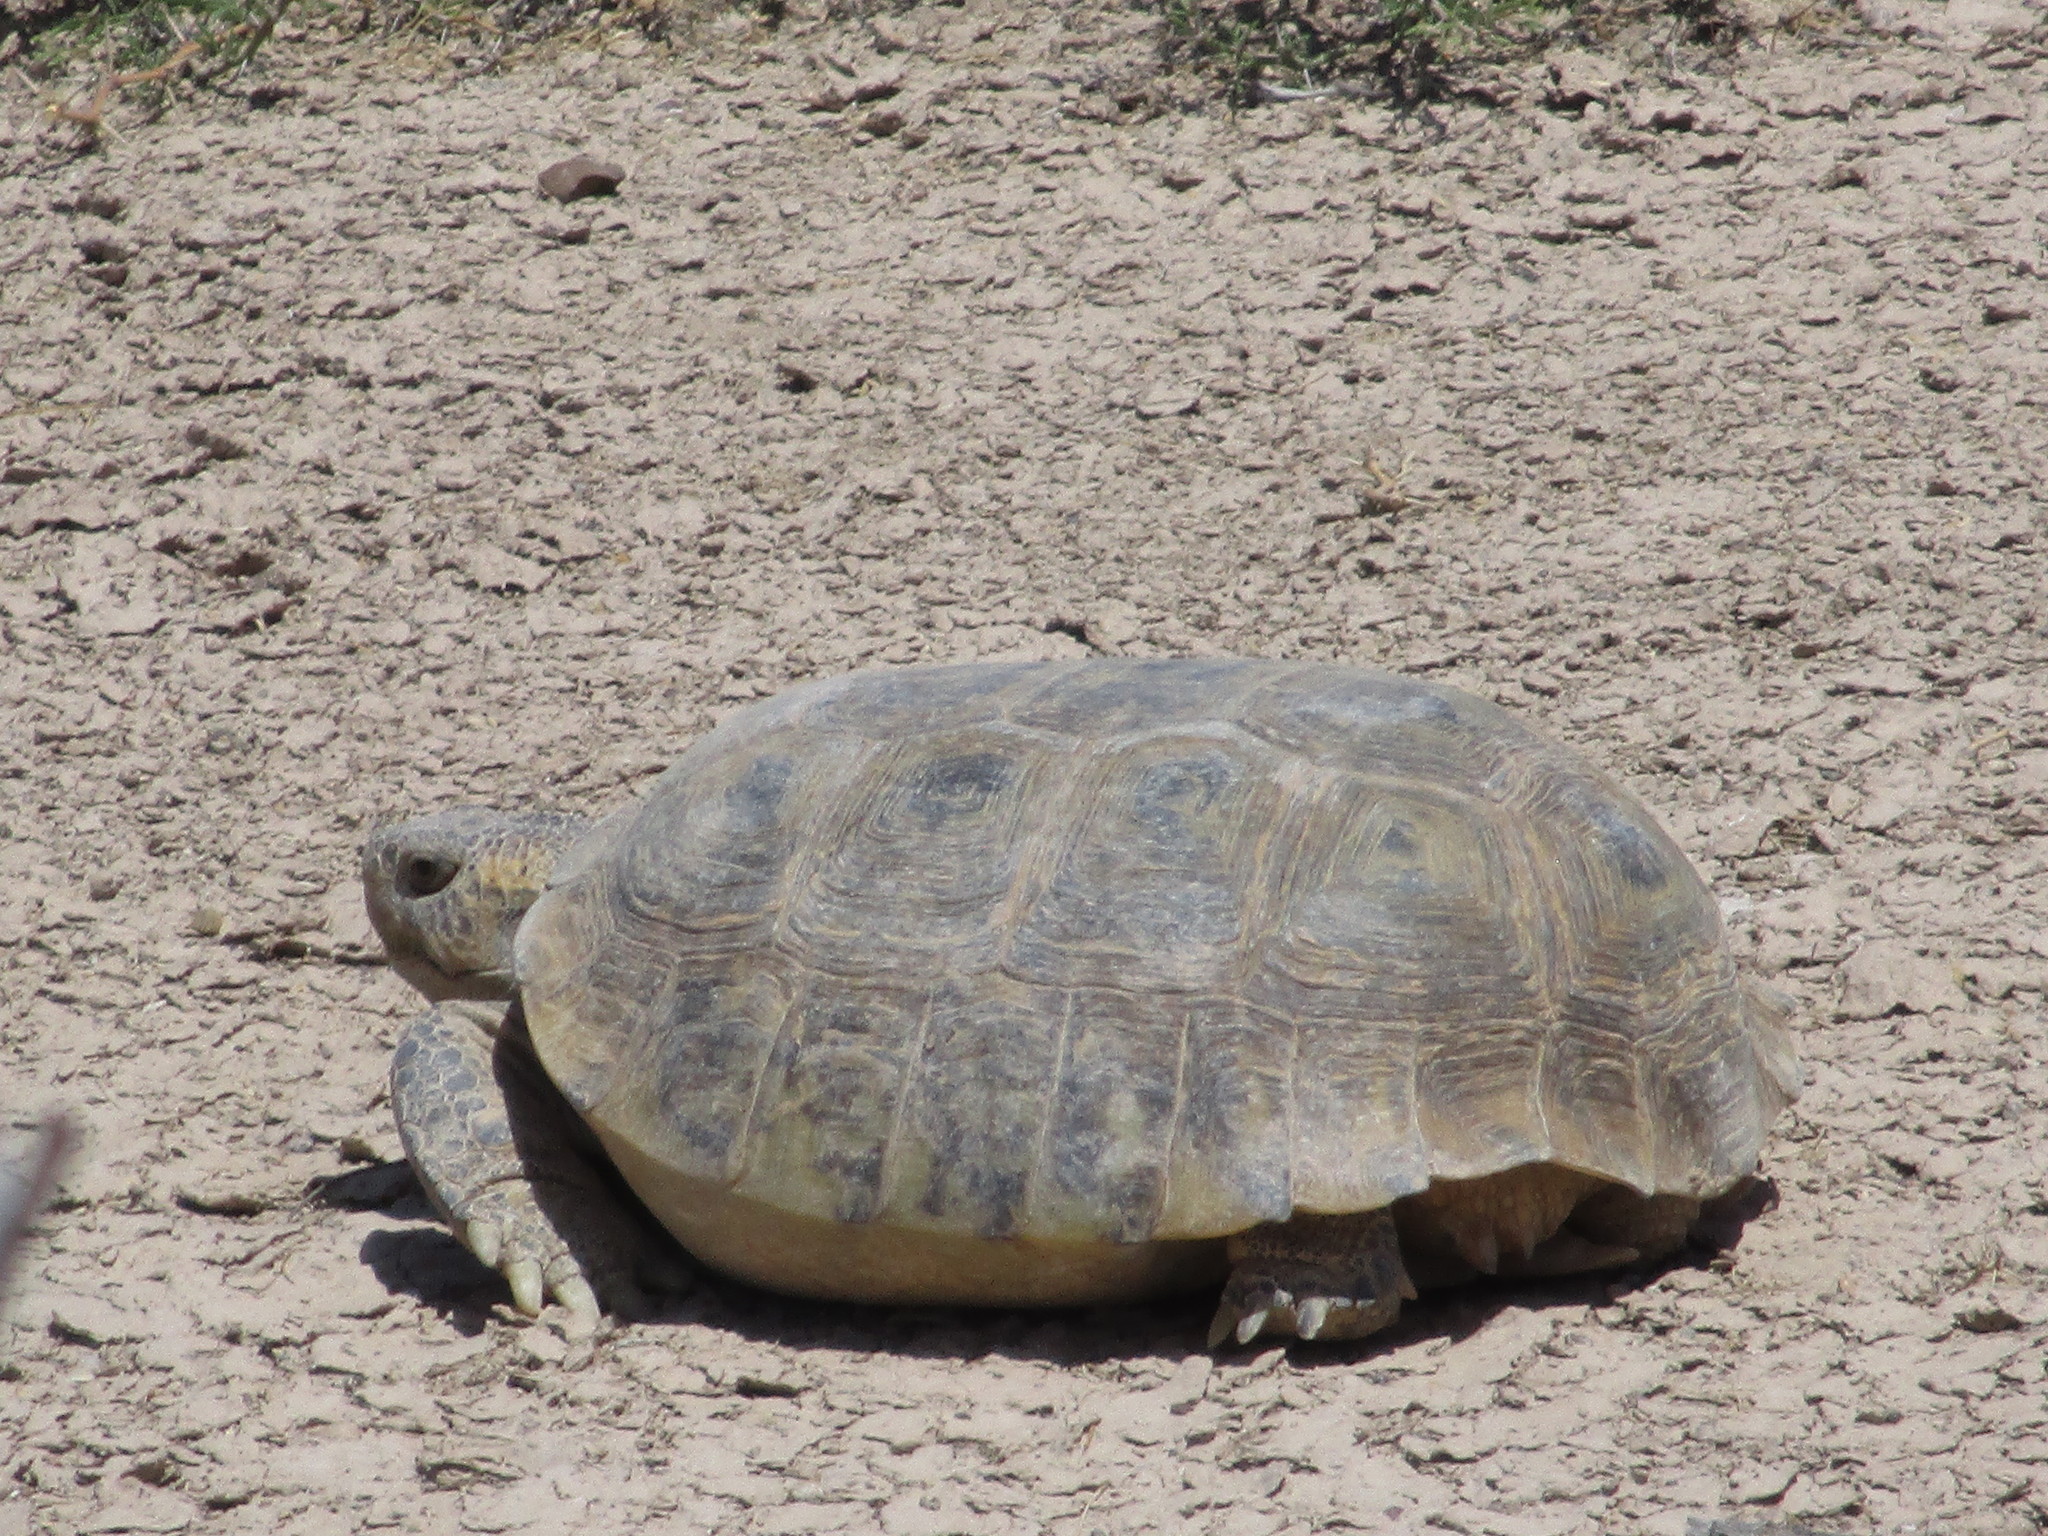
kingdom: Animalia
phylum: Chordata
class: Testudines
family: Testudinidae
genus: Gopherus
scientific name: Gopherus flavomarginatus
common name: Bolson tortoise
